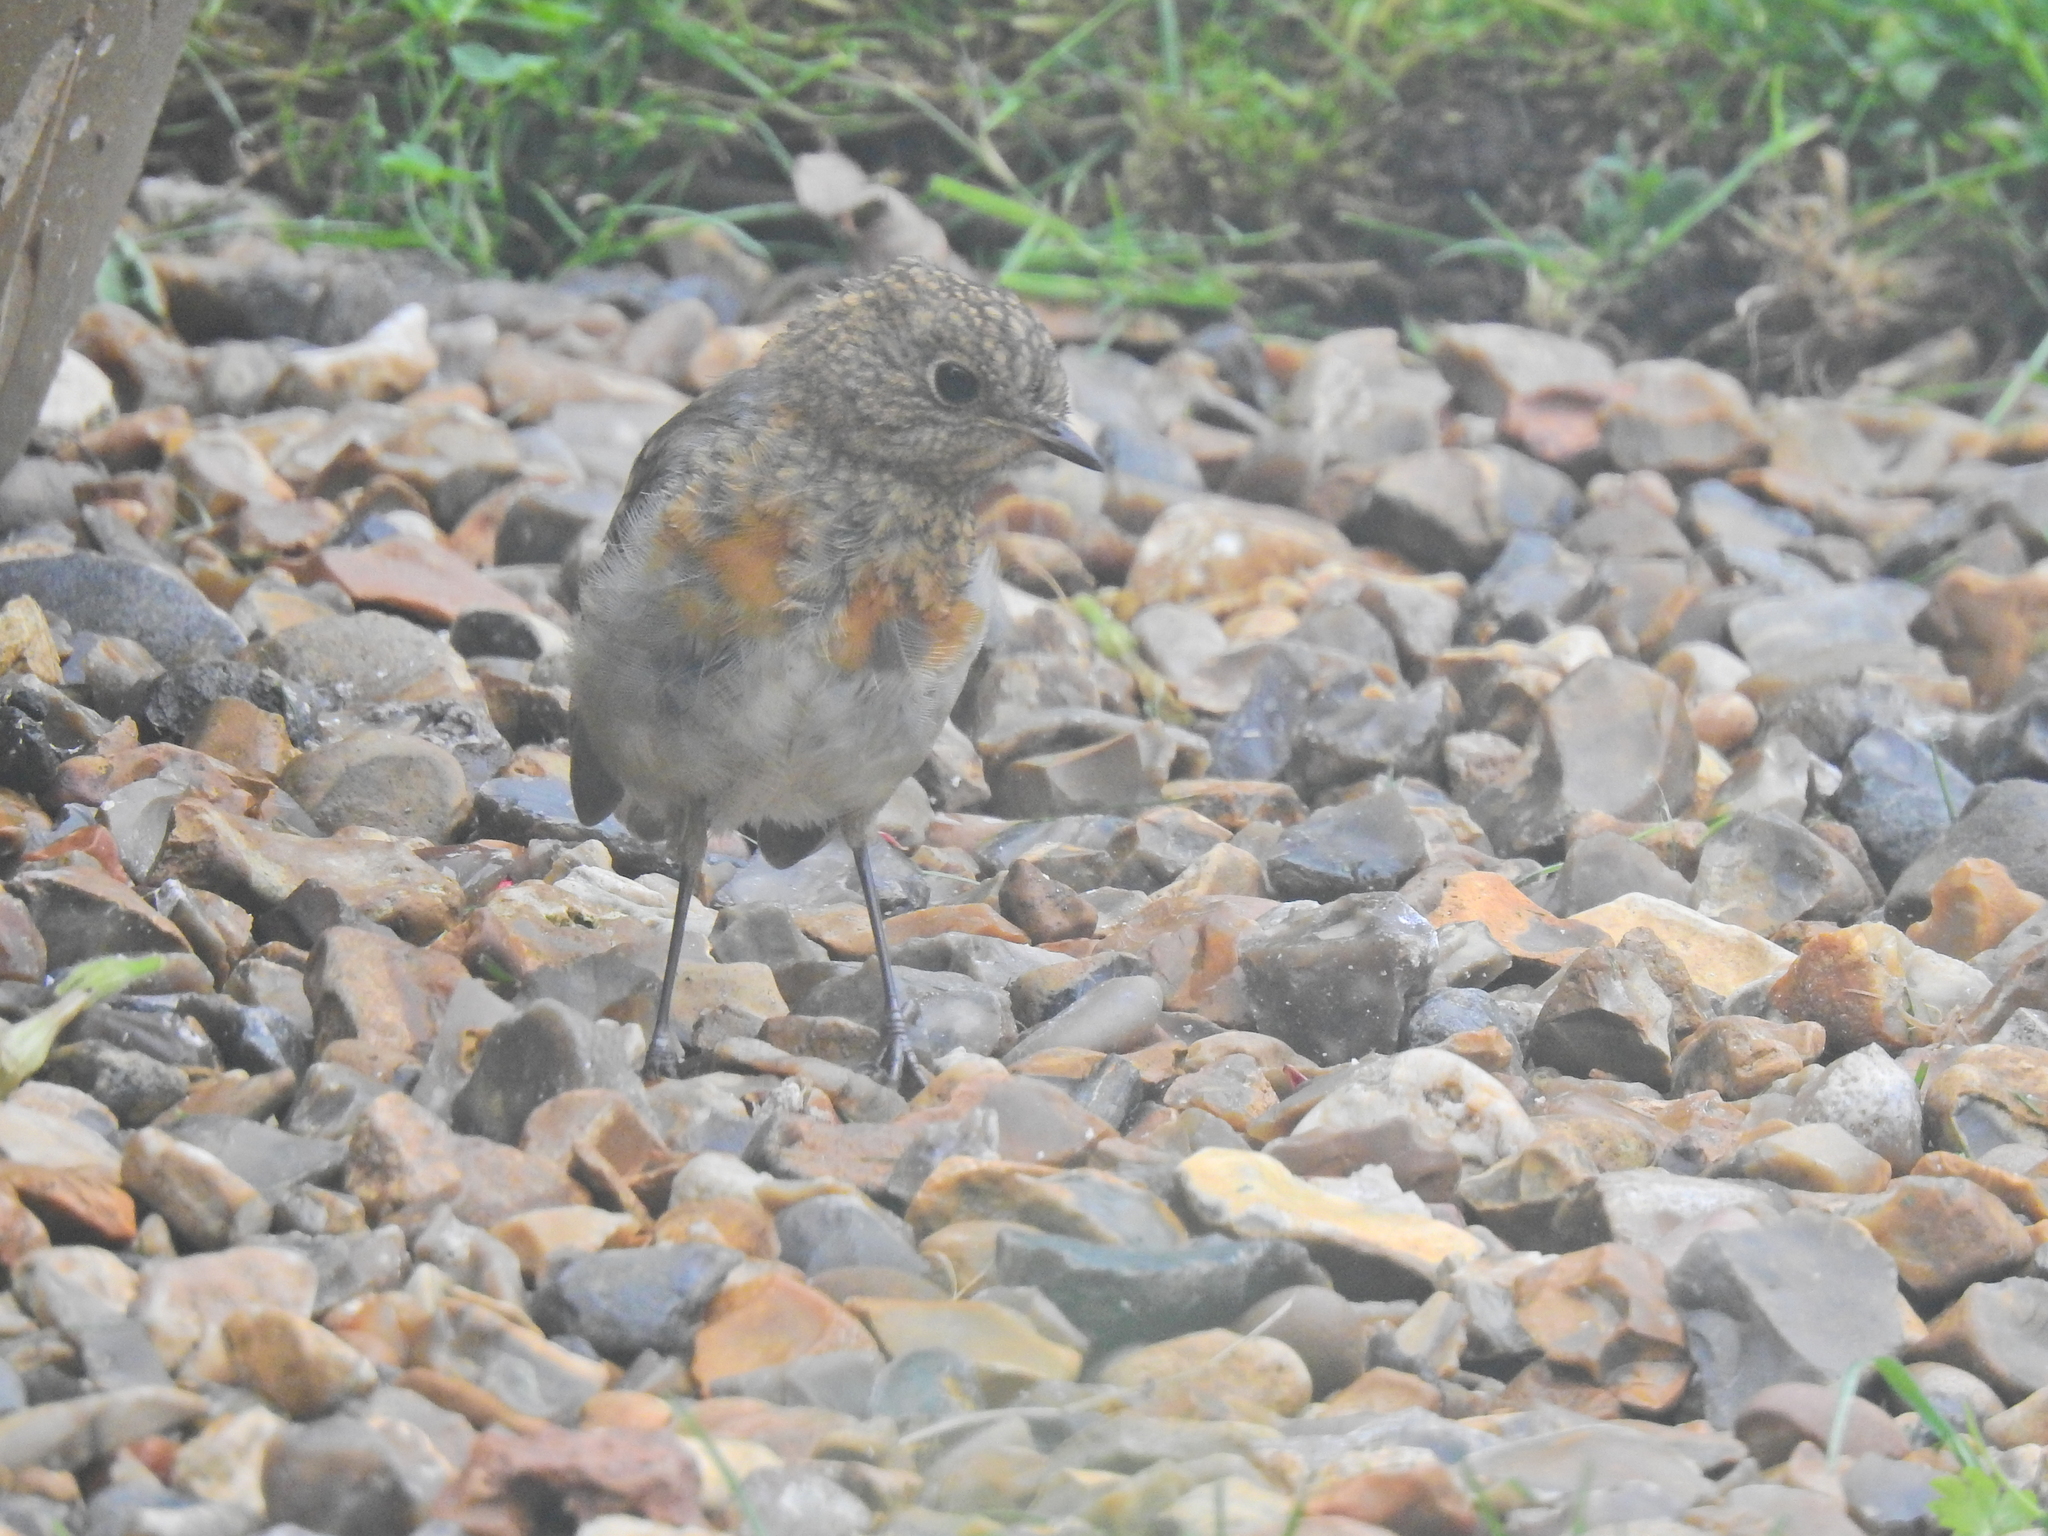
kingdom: Animalia
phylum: Chordata
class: Aves
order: Passeriformes
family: Muscicapidae
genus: Erithacus
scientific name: Erithacus rubecula
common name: European robin
